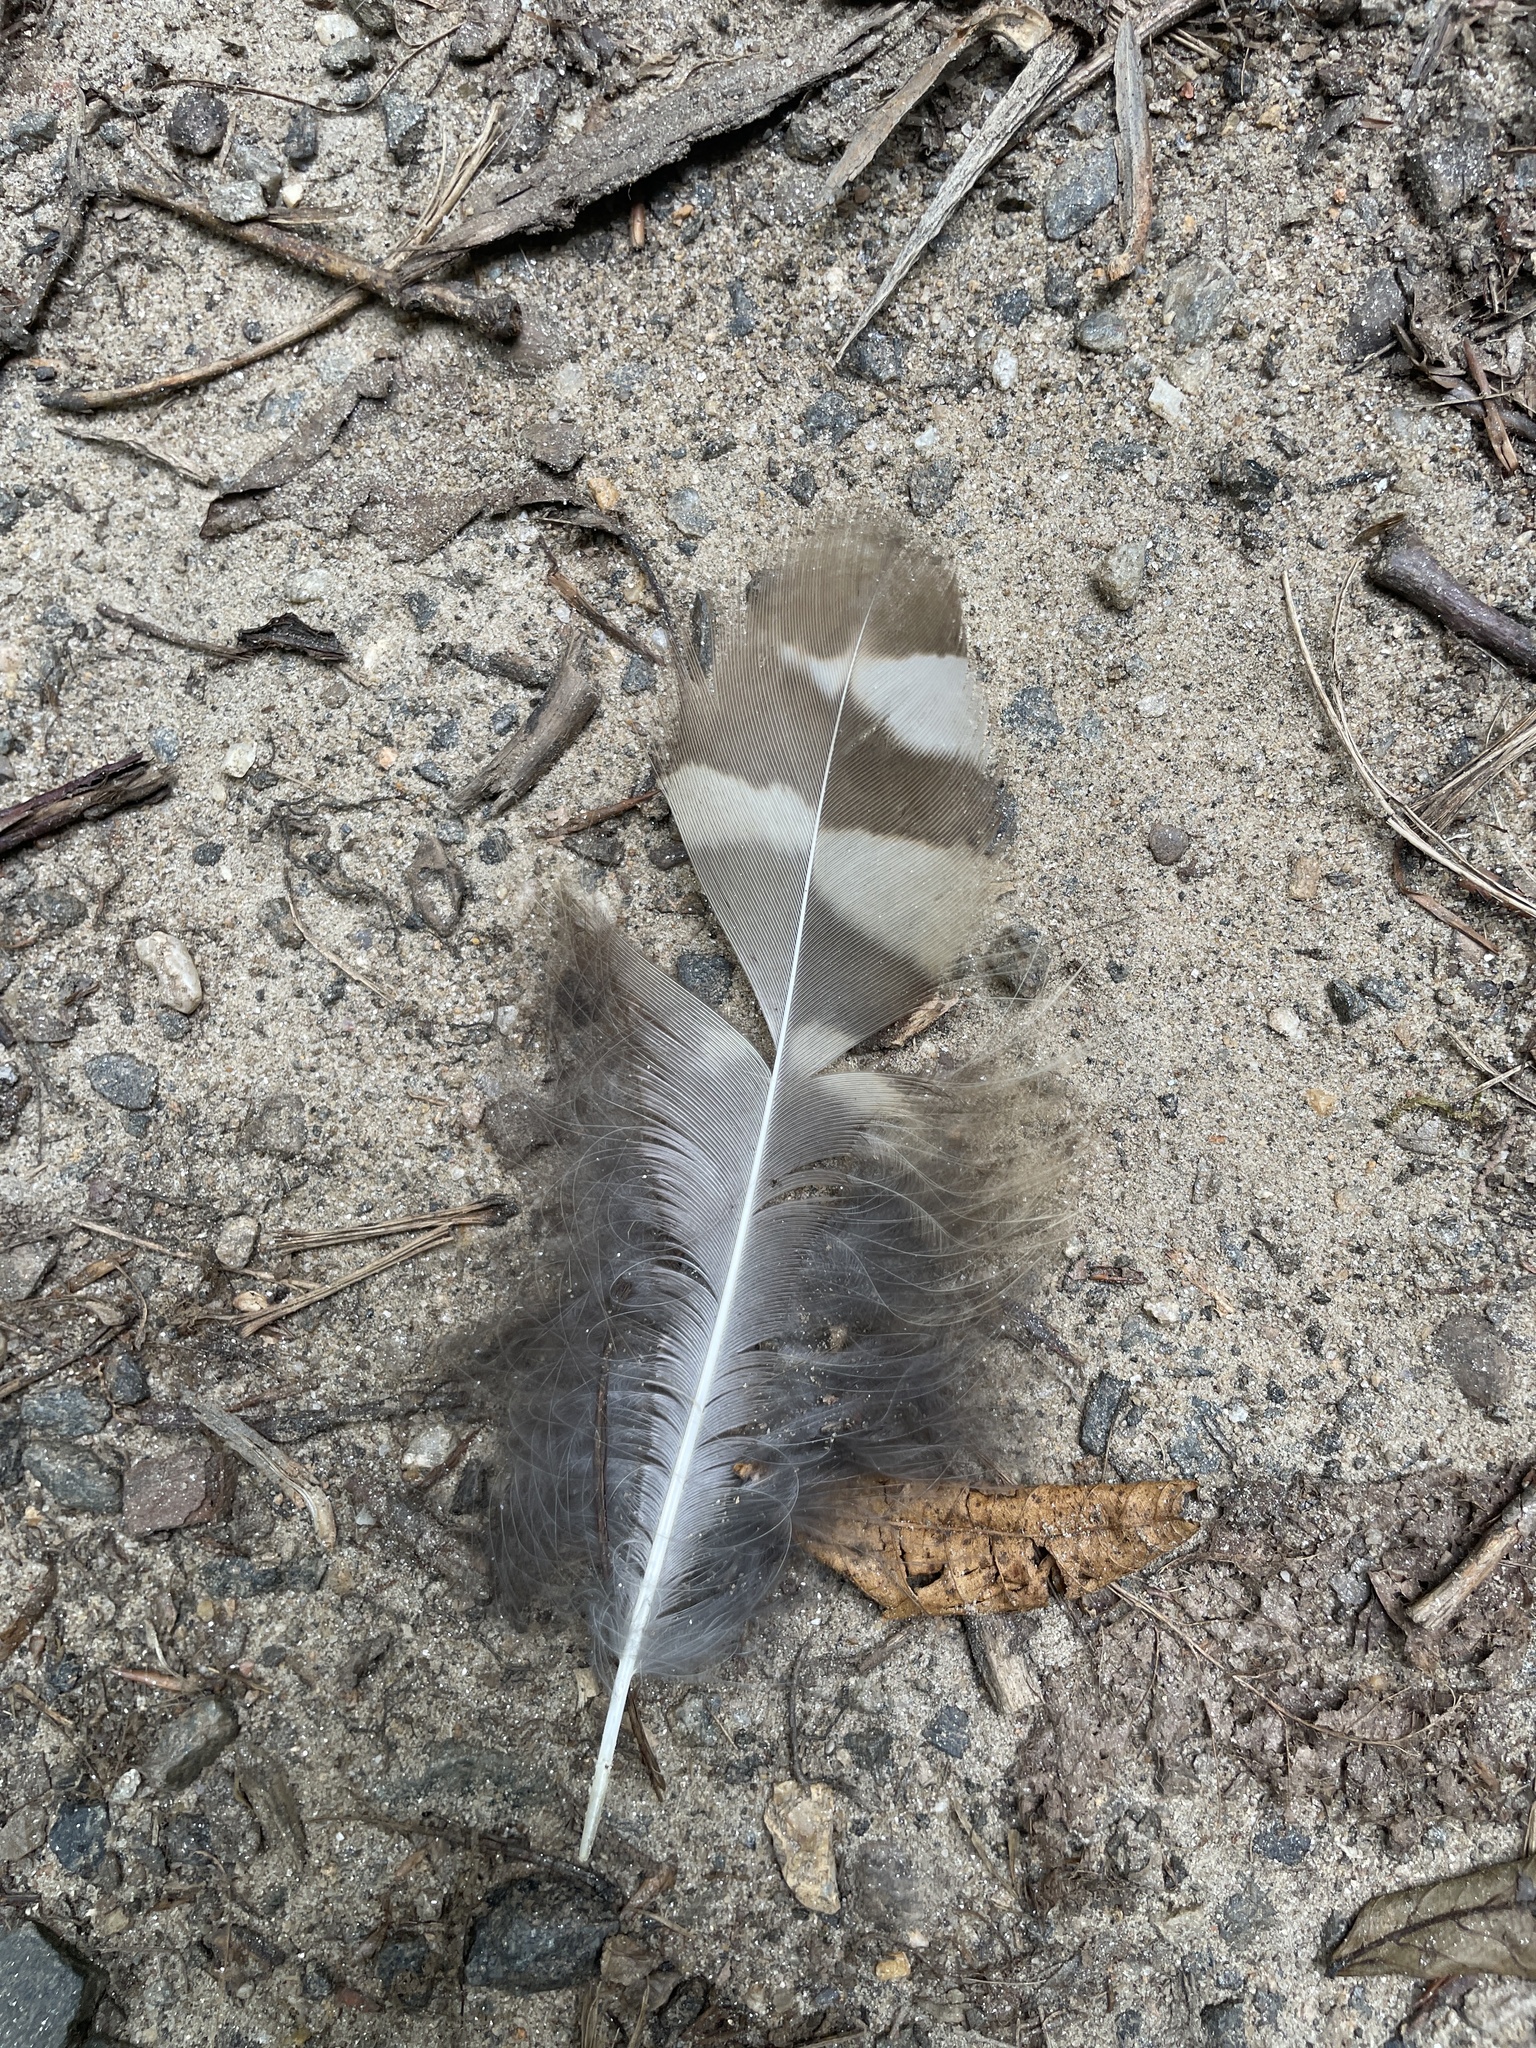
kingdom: Animalia
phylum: Chordata
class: Aves
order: Strigiformes
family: Strigidae
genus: Strix
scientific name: Strix varia
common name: Barred owl
